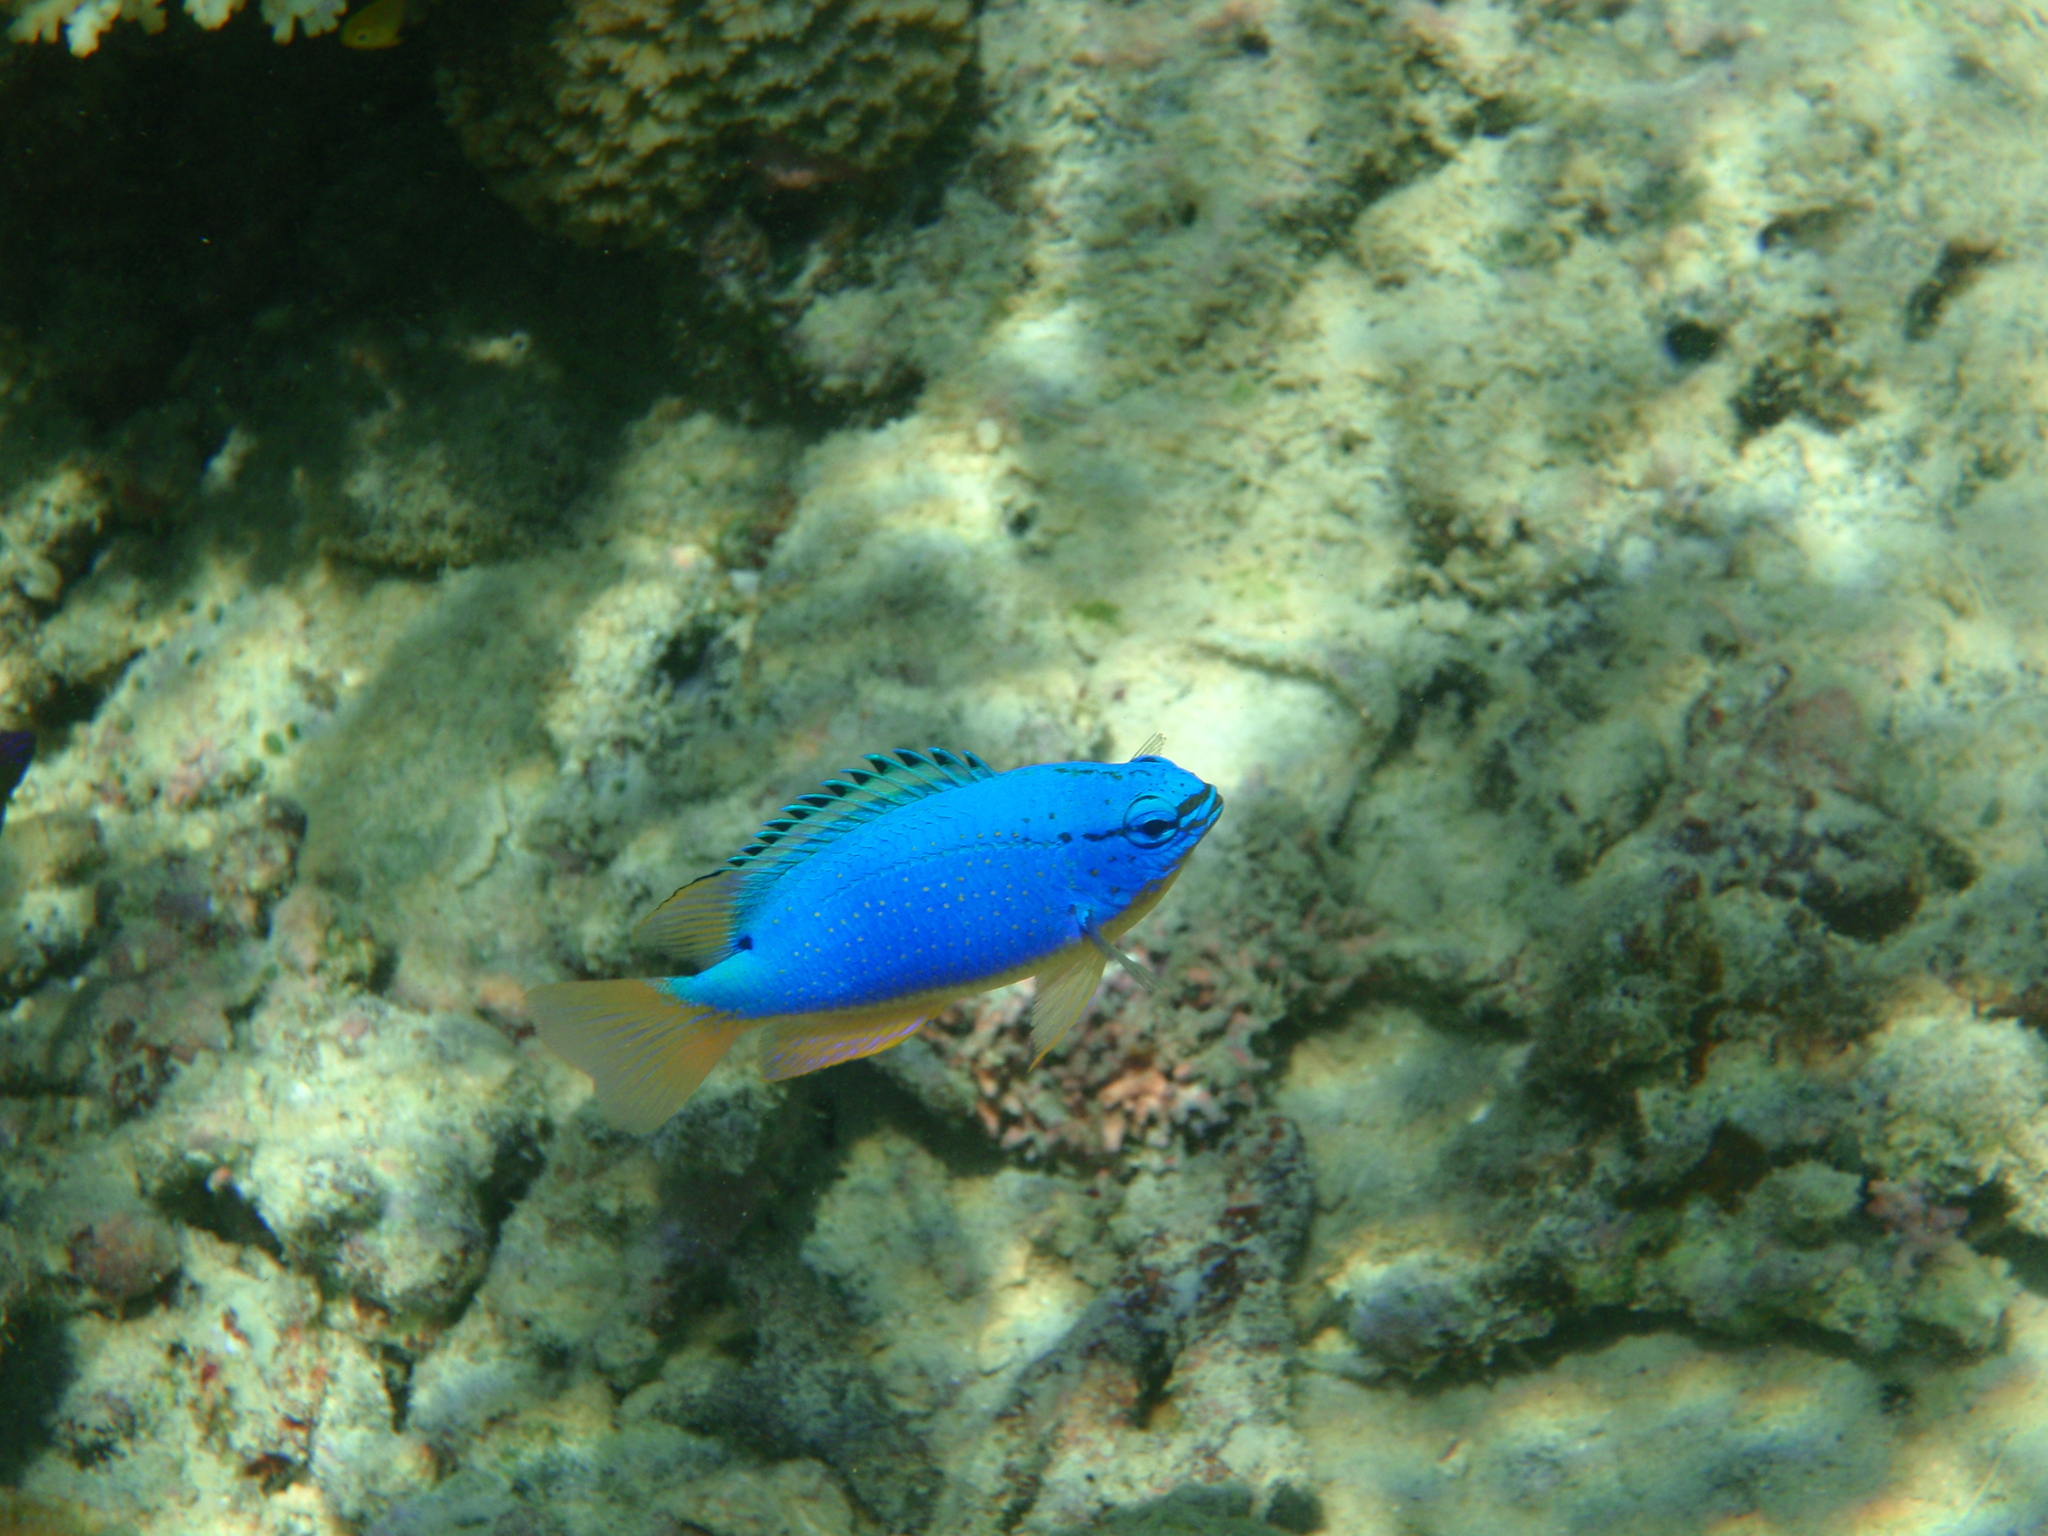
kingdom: Animalia
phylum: Chordata
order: Perciformes
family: Pomacentridae
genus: Chrysiptera
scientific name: Chrysiptera taupou
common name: Fiji damsel
